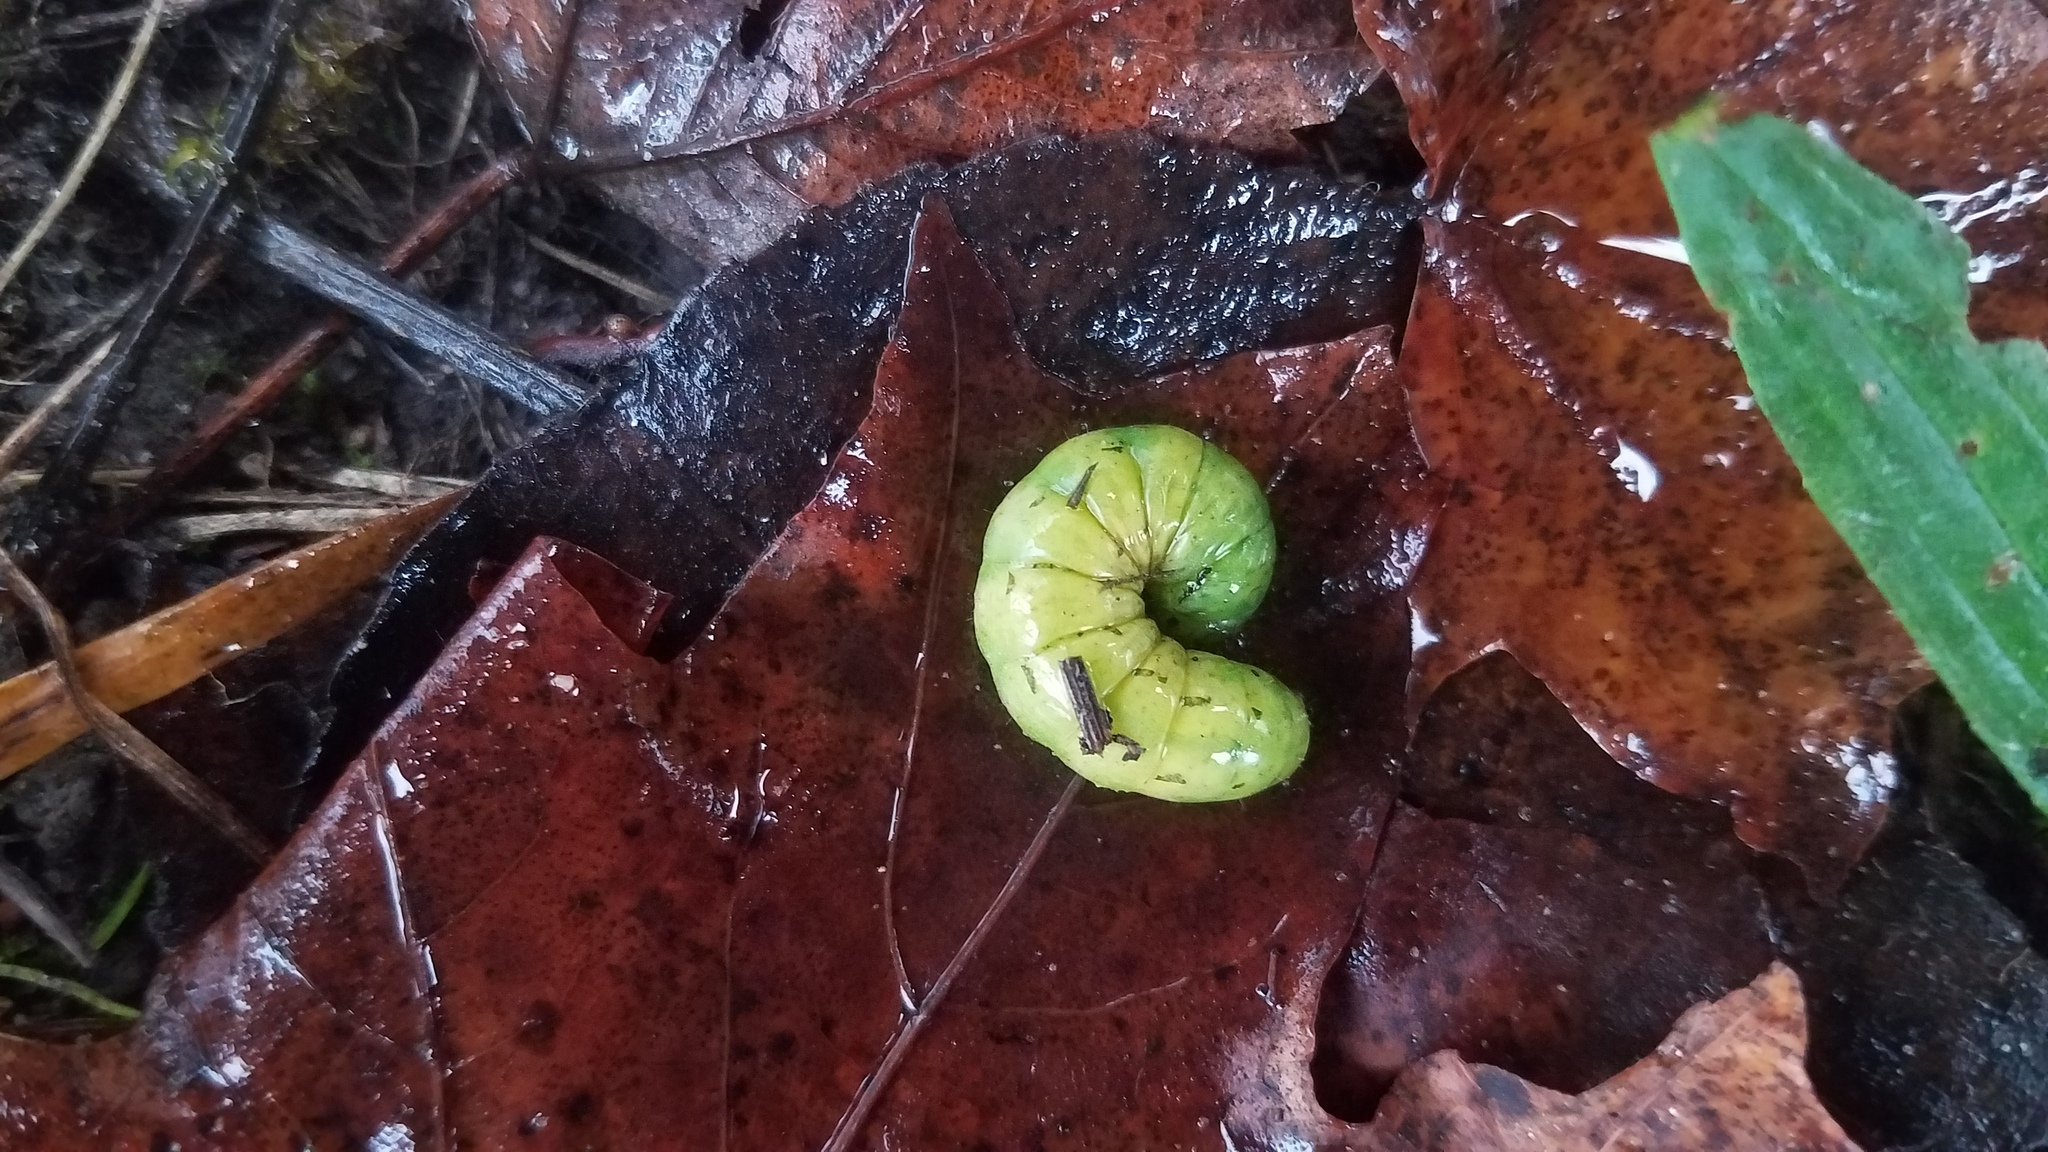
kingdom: Animalia
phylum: Arthropoda
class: Insecta
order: Lepidoptera
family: Noctuidae
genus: Noctua
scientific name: Noctua pronuba
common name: Large yellow underwing
